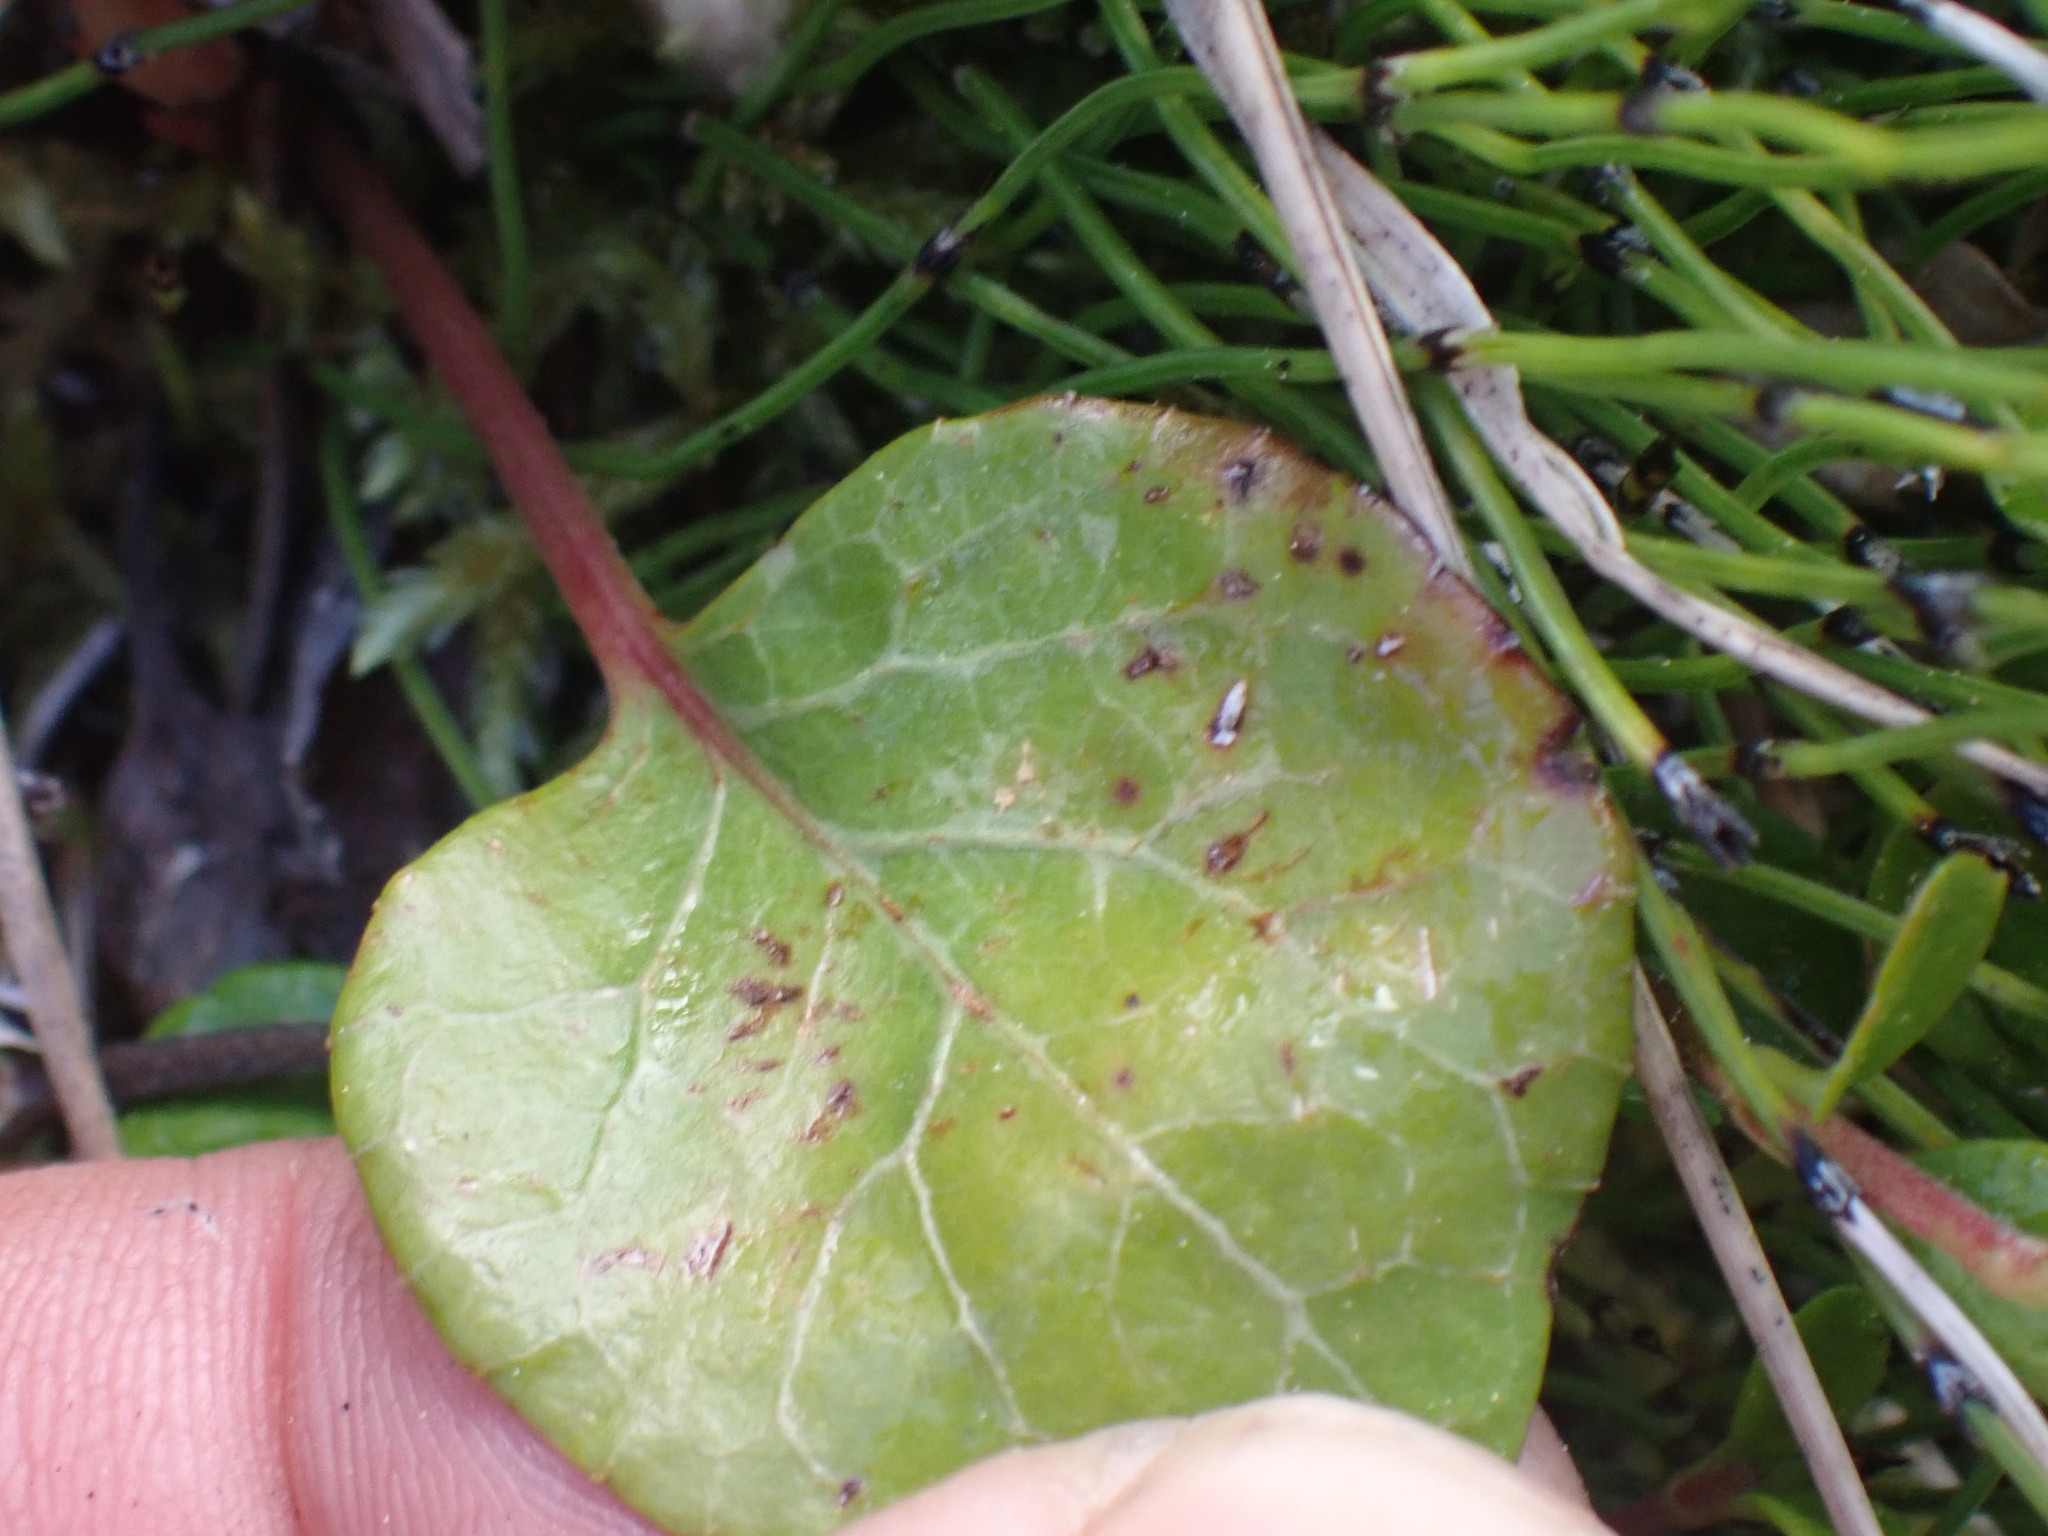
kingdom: Plantae
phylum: Tracheophyta
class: Magnoliopsida
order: Ericales
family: Ericaceae
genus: Pyrola
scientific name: Pyrola asarifolia
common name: Bog wintergreen
